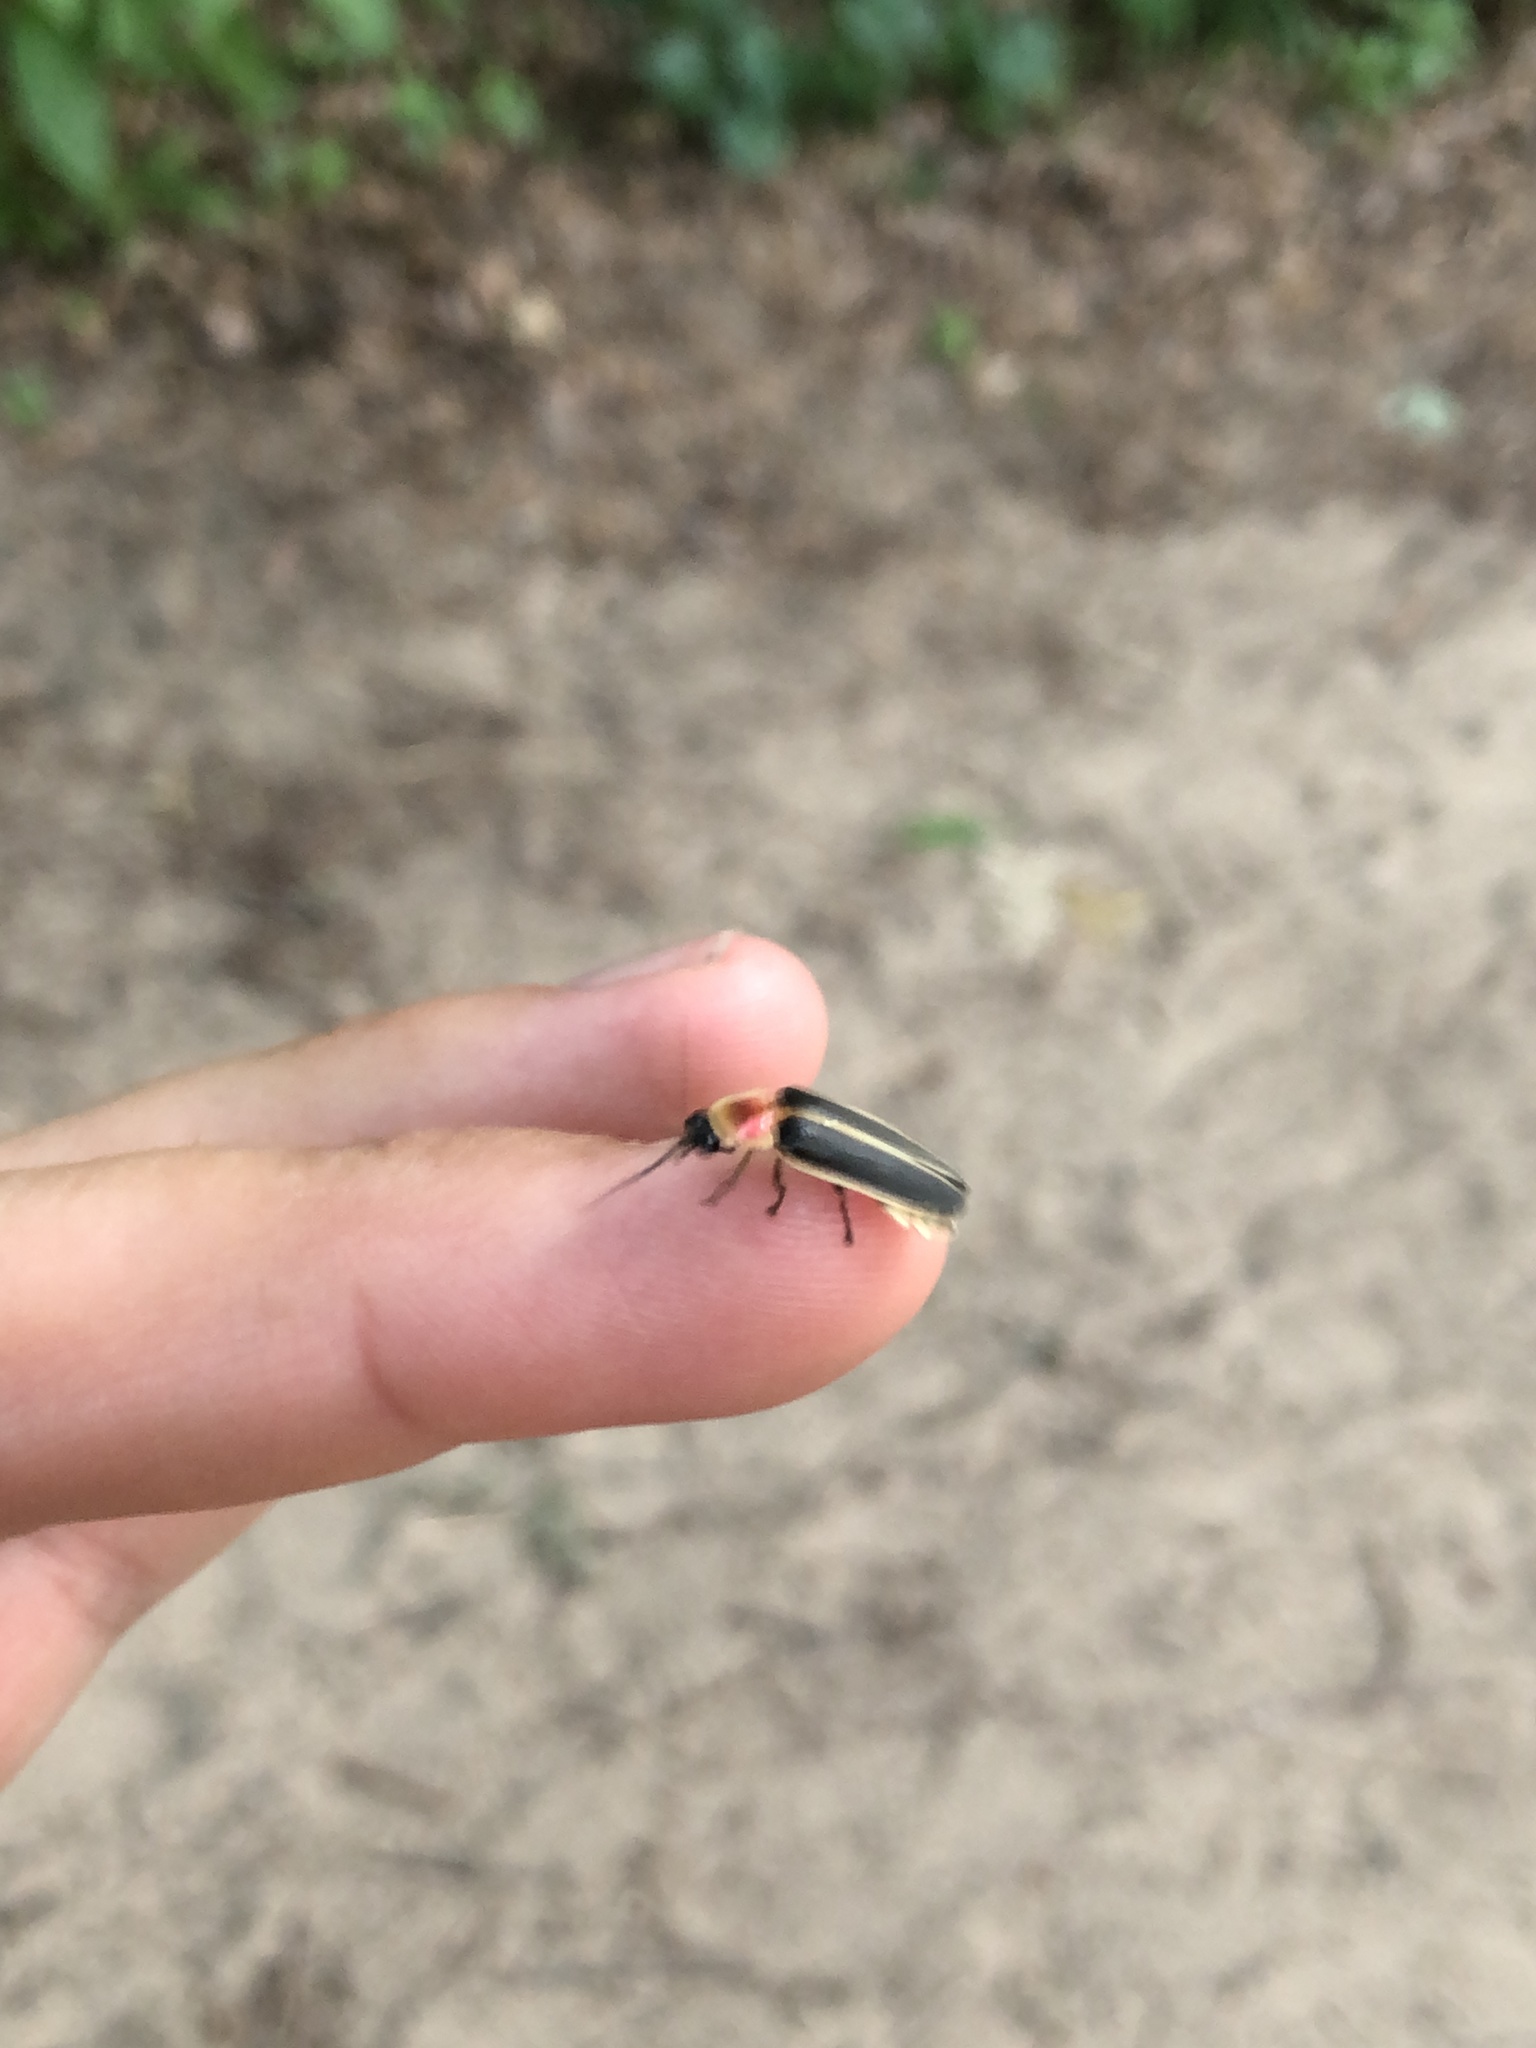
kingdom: Animalia
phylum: Arthropoda
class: Insecta
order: Coleoptera
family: Lampyridae
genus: Photinus
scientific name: Photinus pyralis
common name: Big dipper firefly
